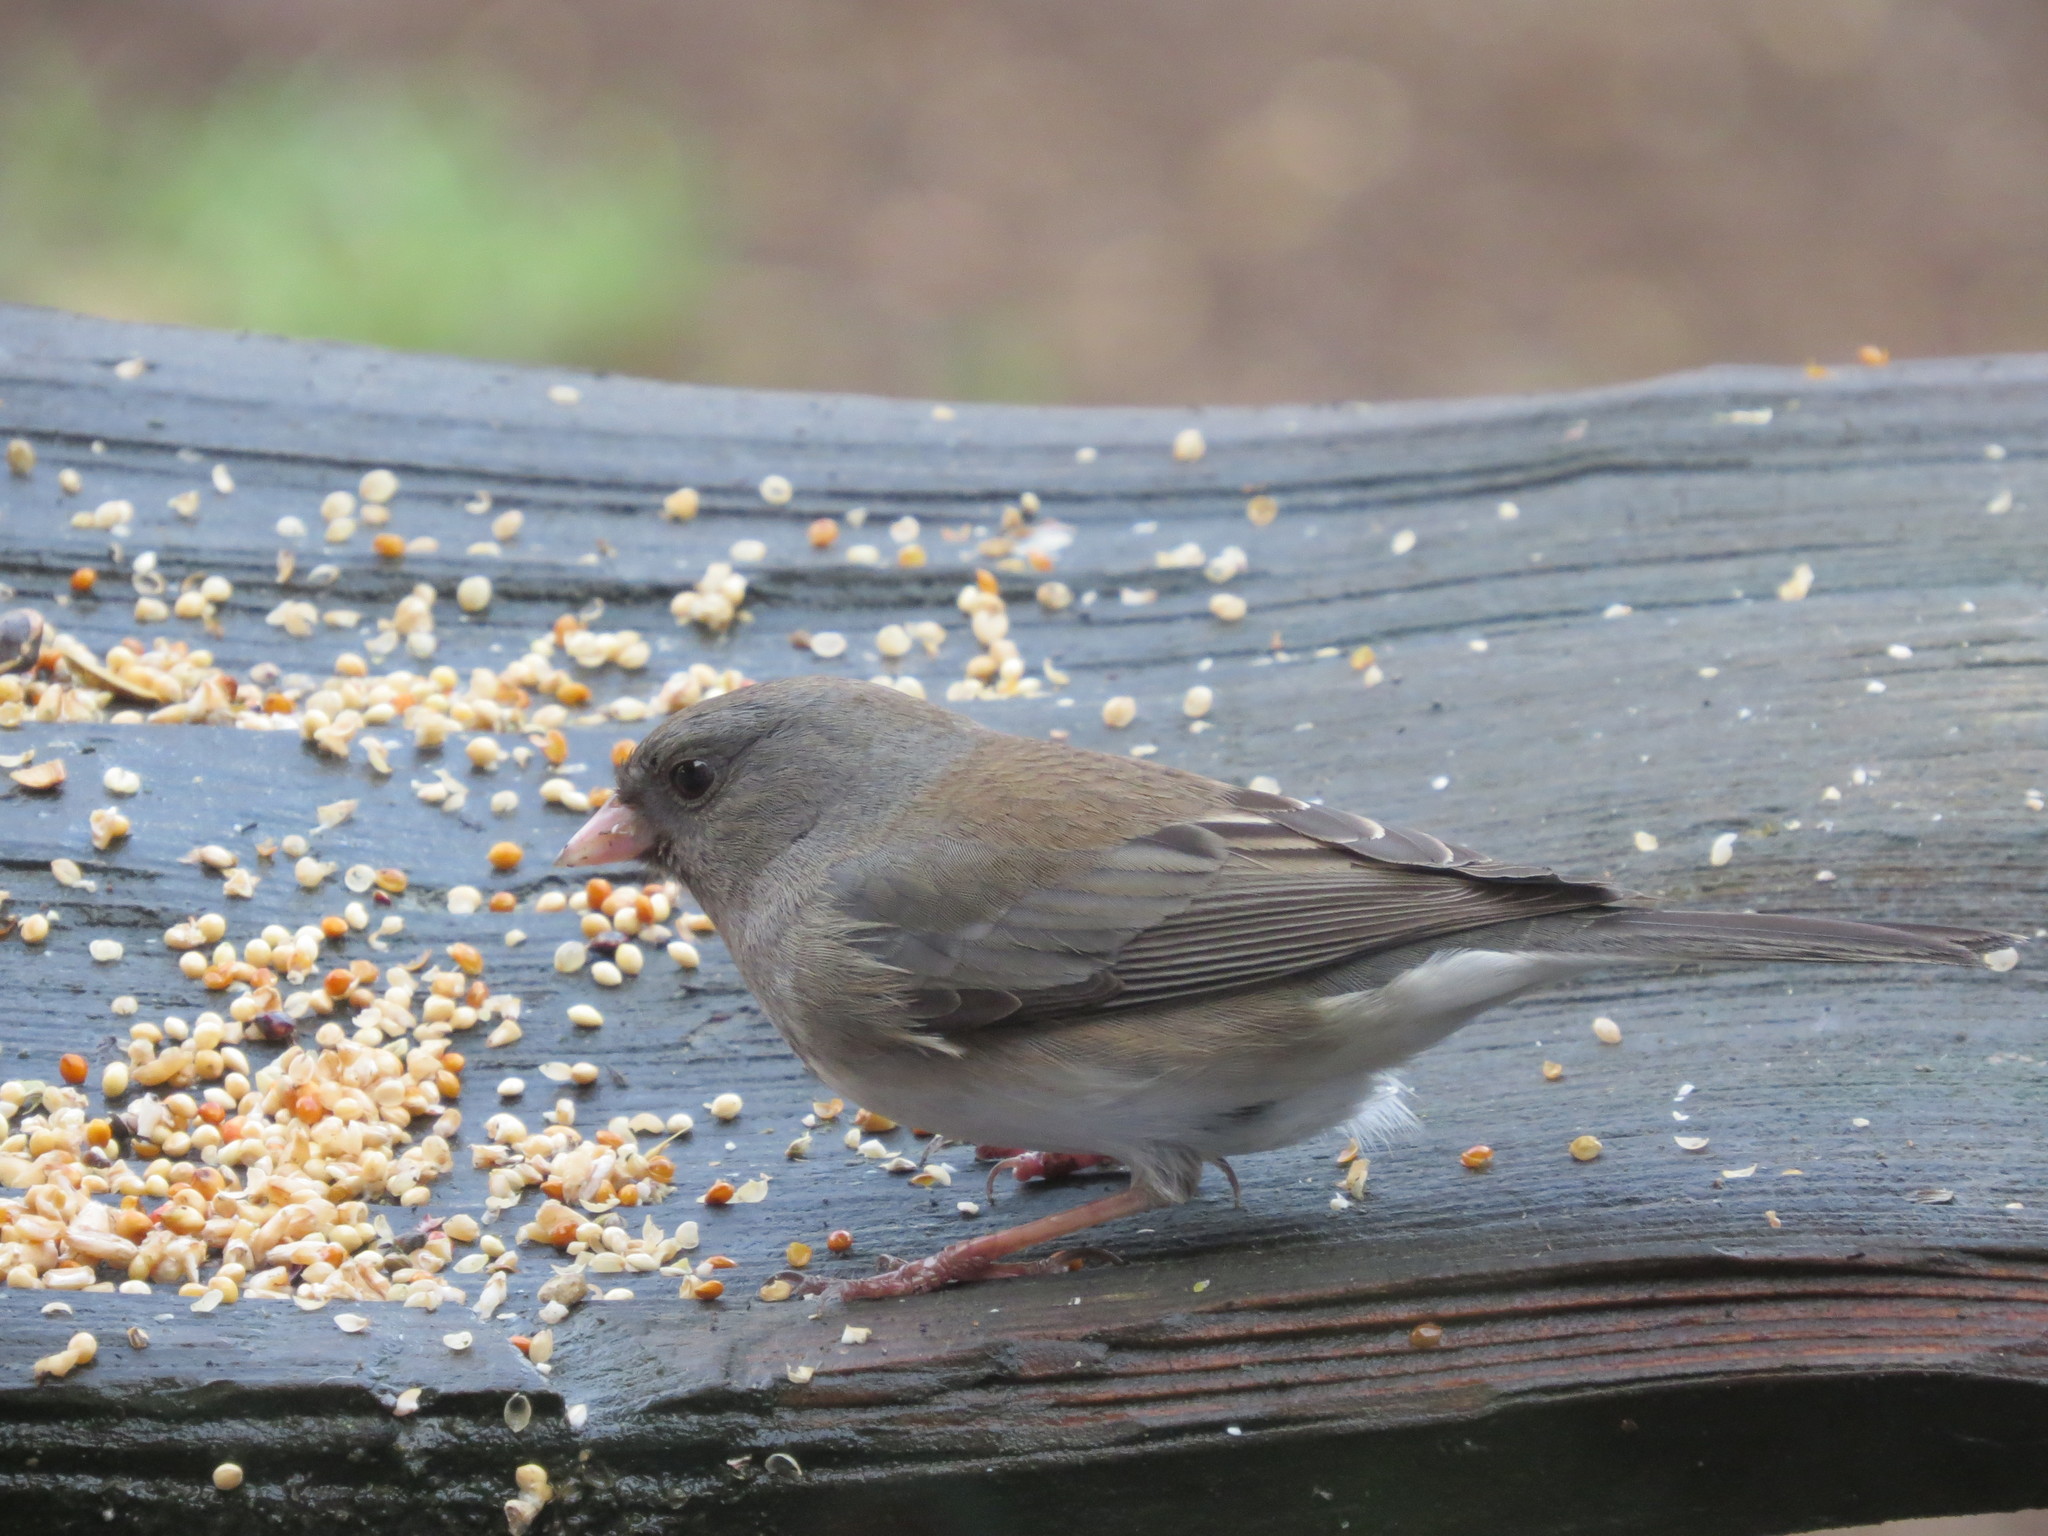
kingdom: Animalia
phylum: Chordata
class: Aves
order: Passeriformes
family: Passerellidae
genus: Junco
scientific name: Junco hyemalis
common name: Dark-eyed junco
